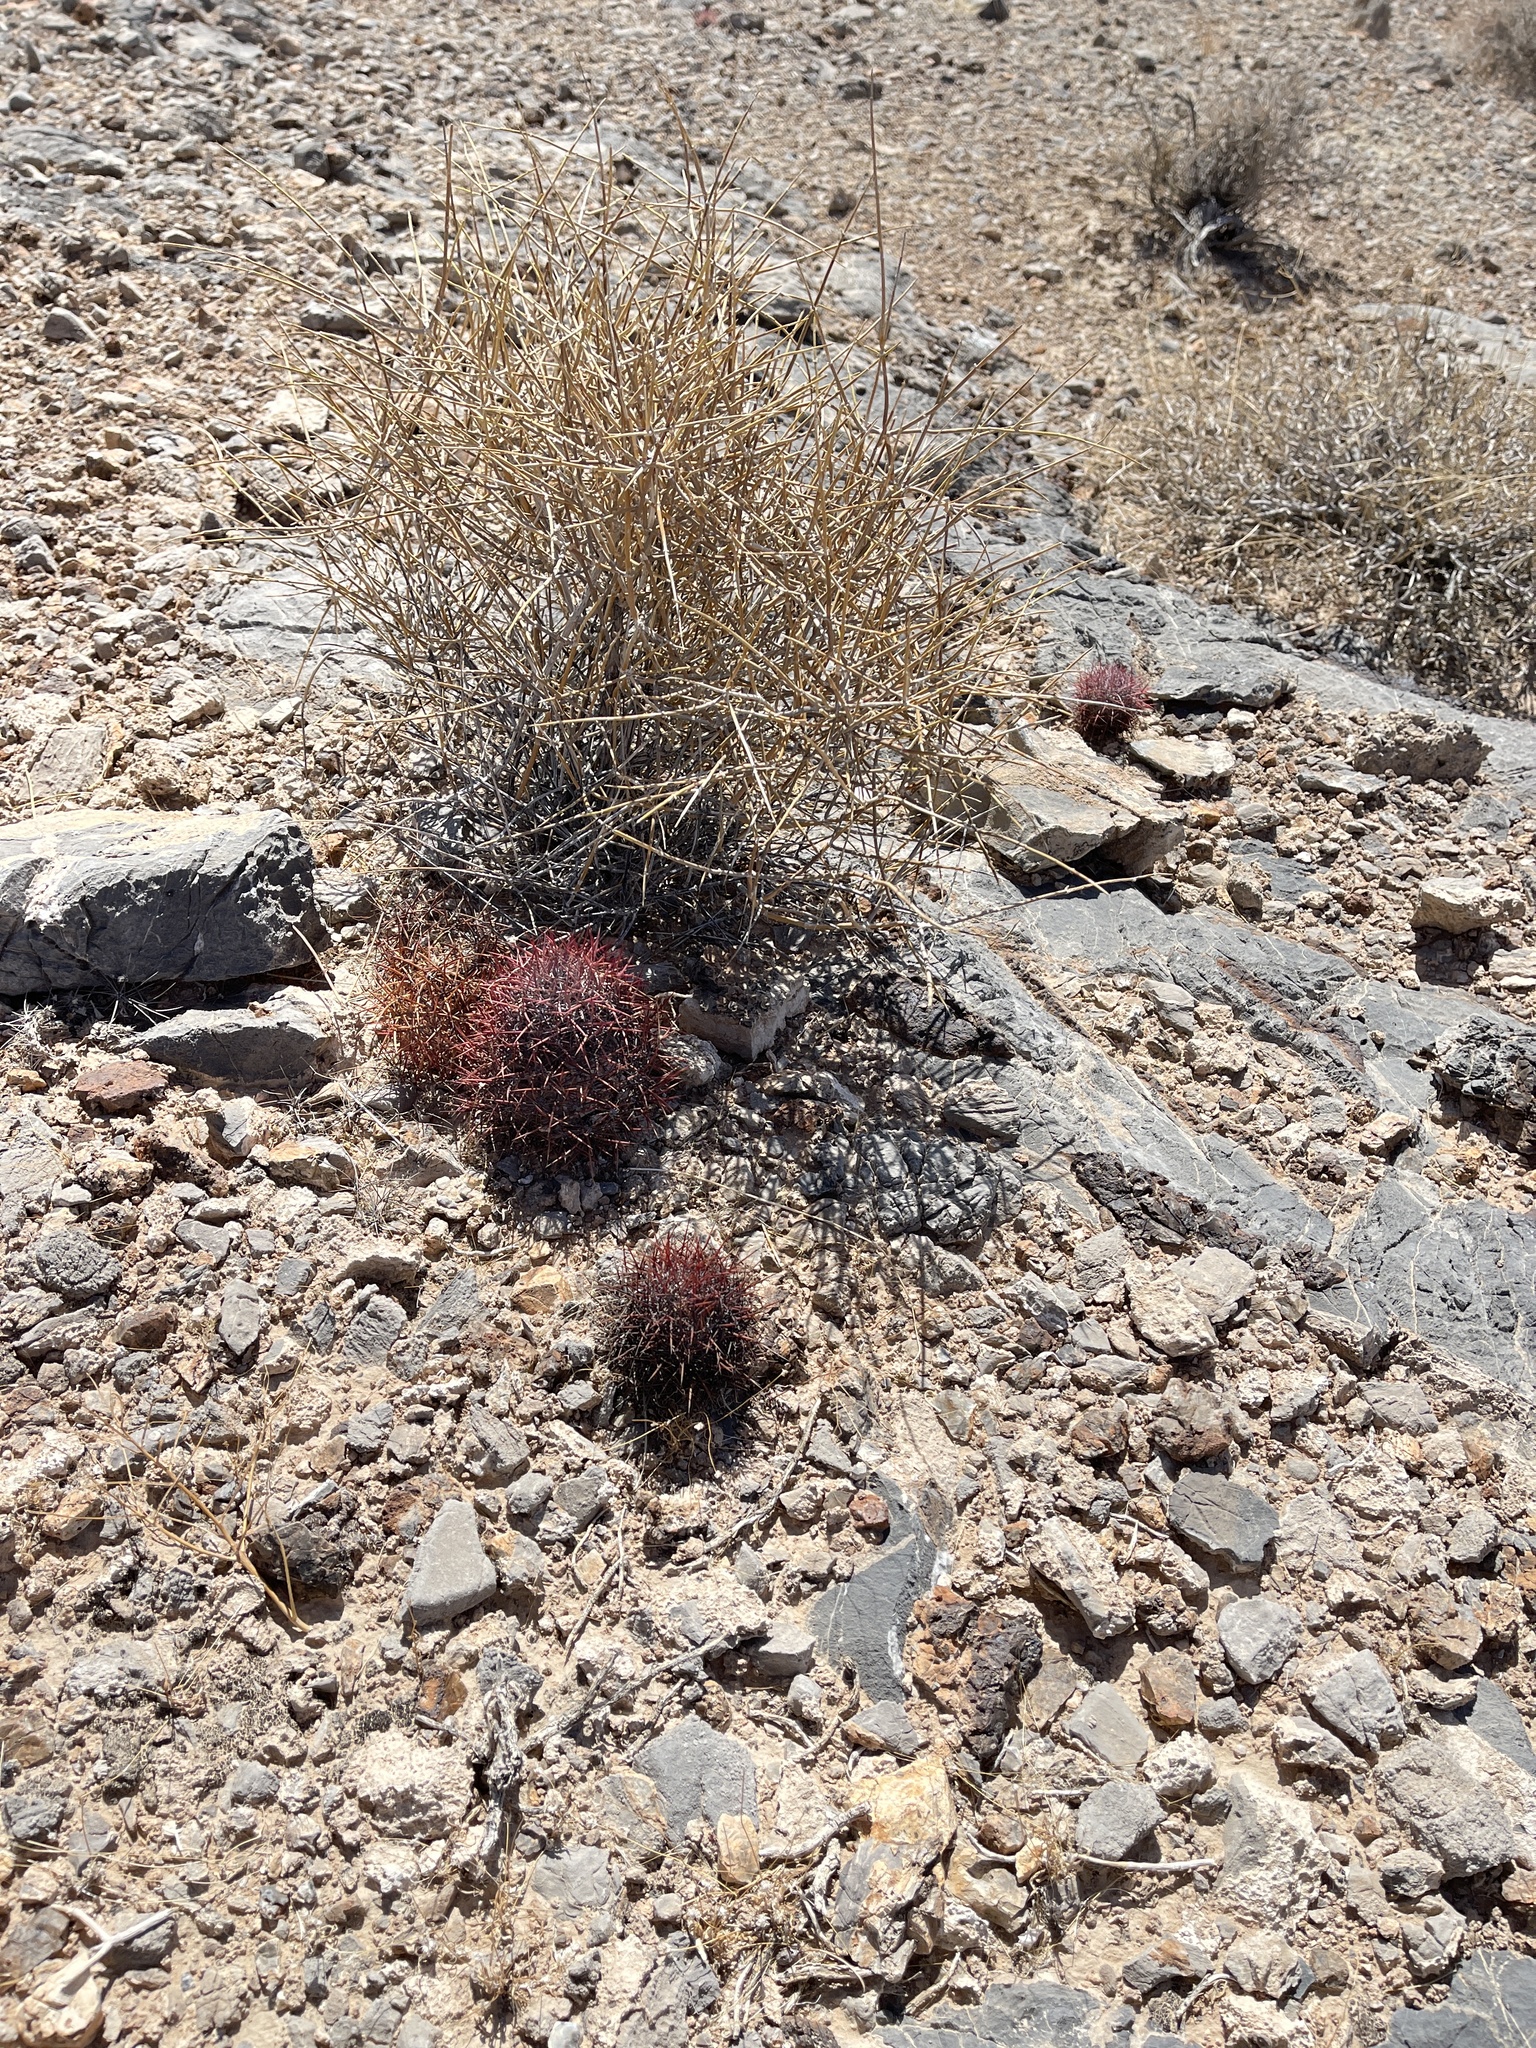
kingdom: Plantae
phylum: Tracheophyta
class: Magnoliopsida
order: Caryophyllales
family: Cactaceae
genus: Sclerocactus
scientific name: Sclerocactus johnsonii
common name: Eight-spine fishhook cactus
